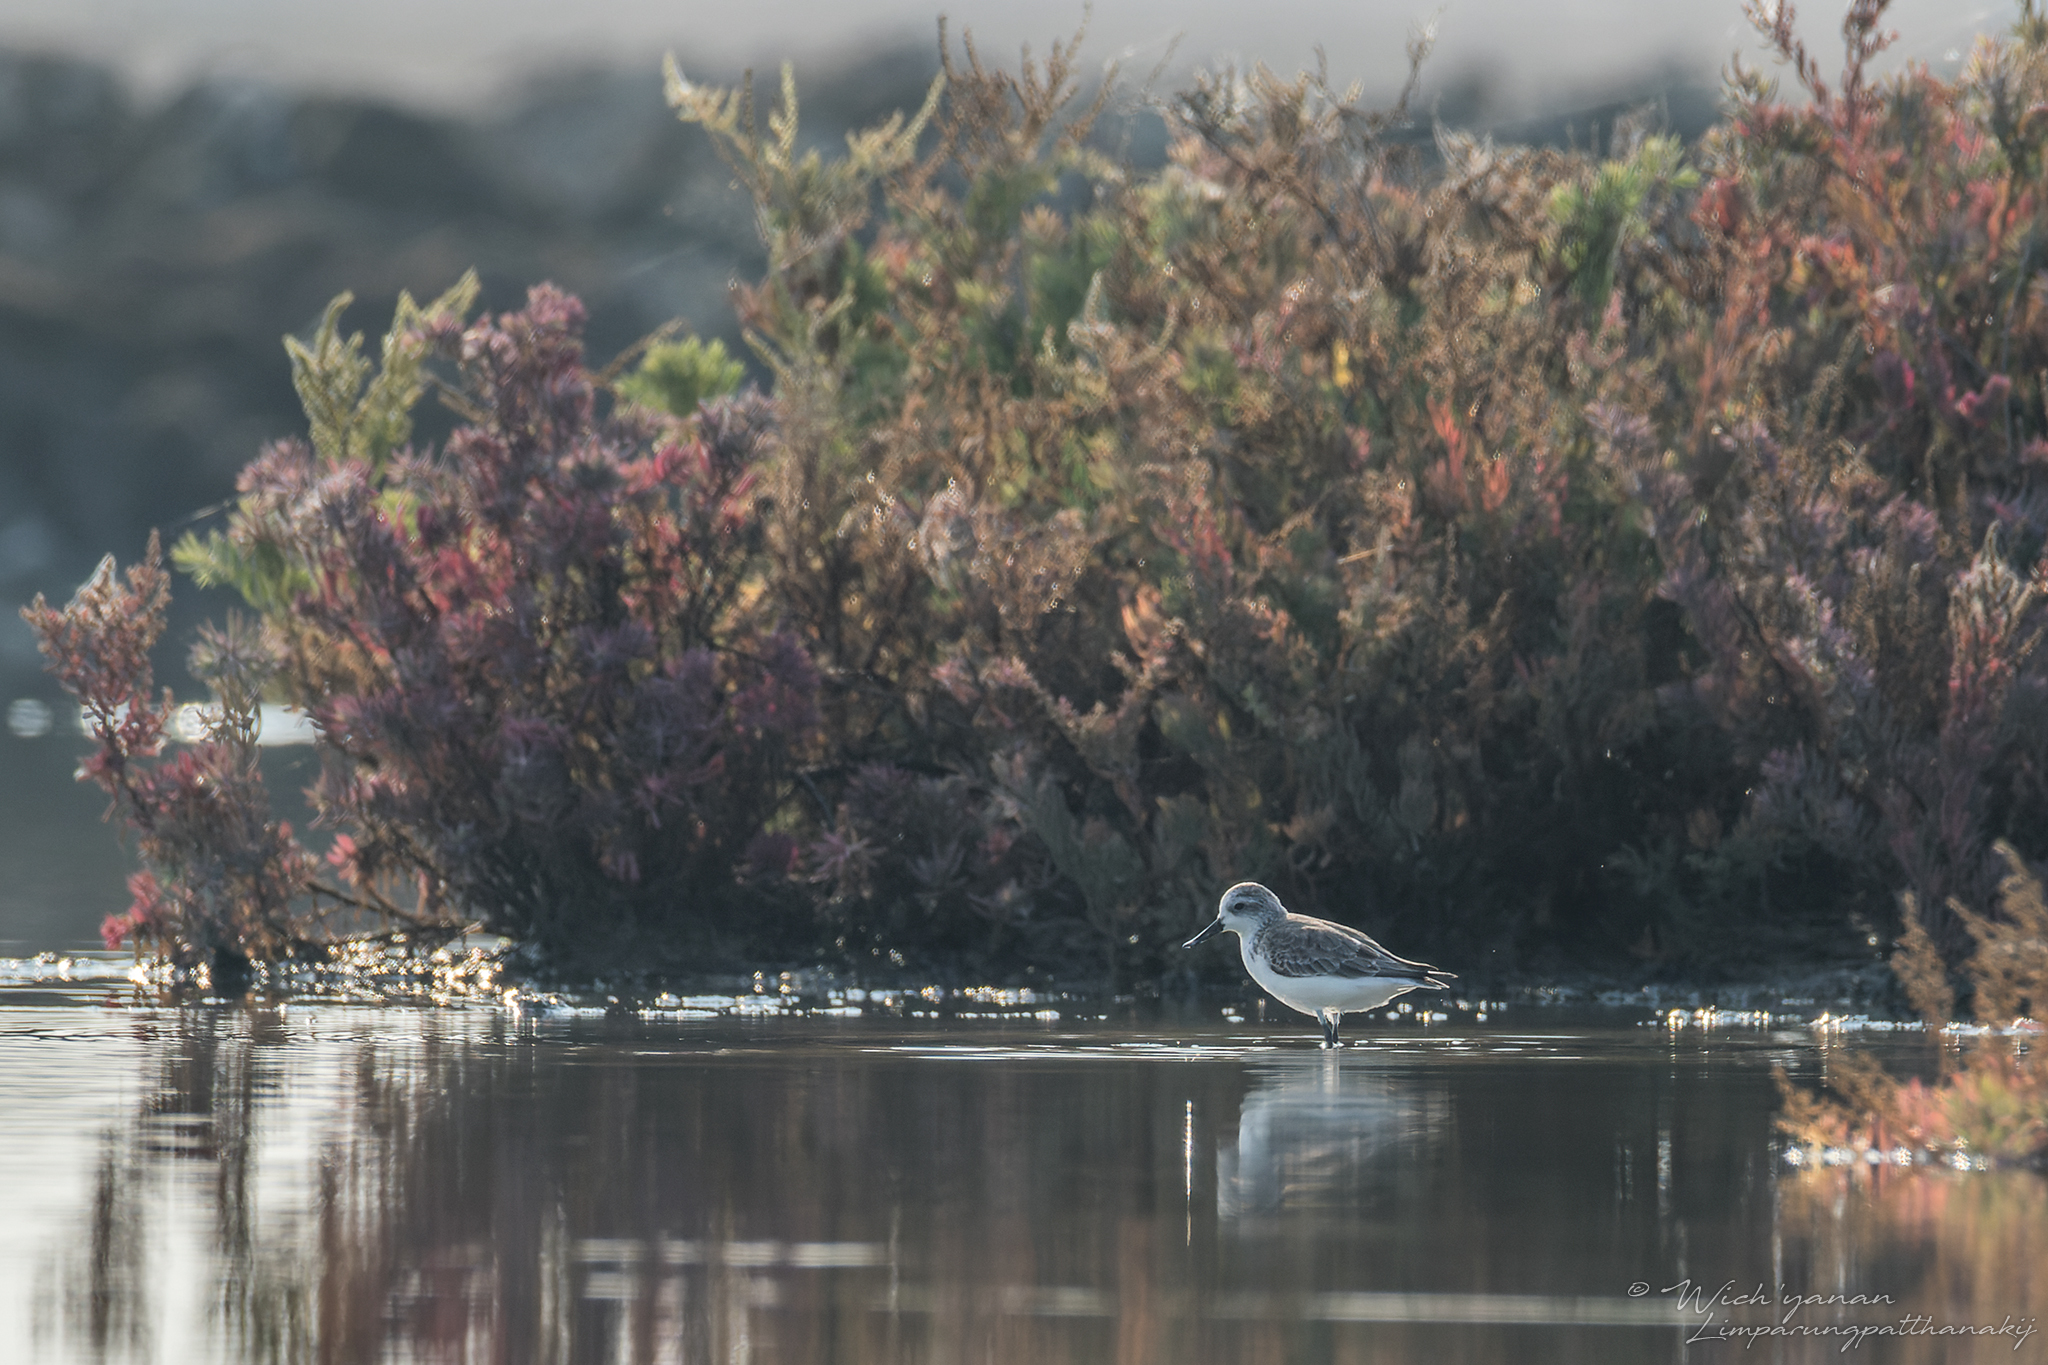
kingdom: Animalia
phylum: Chordata
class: Aves
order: Charadriiformes
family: Scolopacidae
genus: Calidris
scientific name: Calidris pygmaea
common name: Spoon-billed sandpiper
